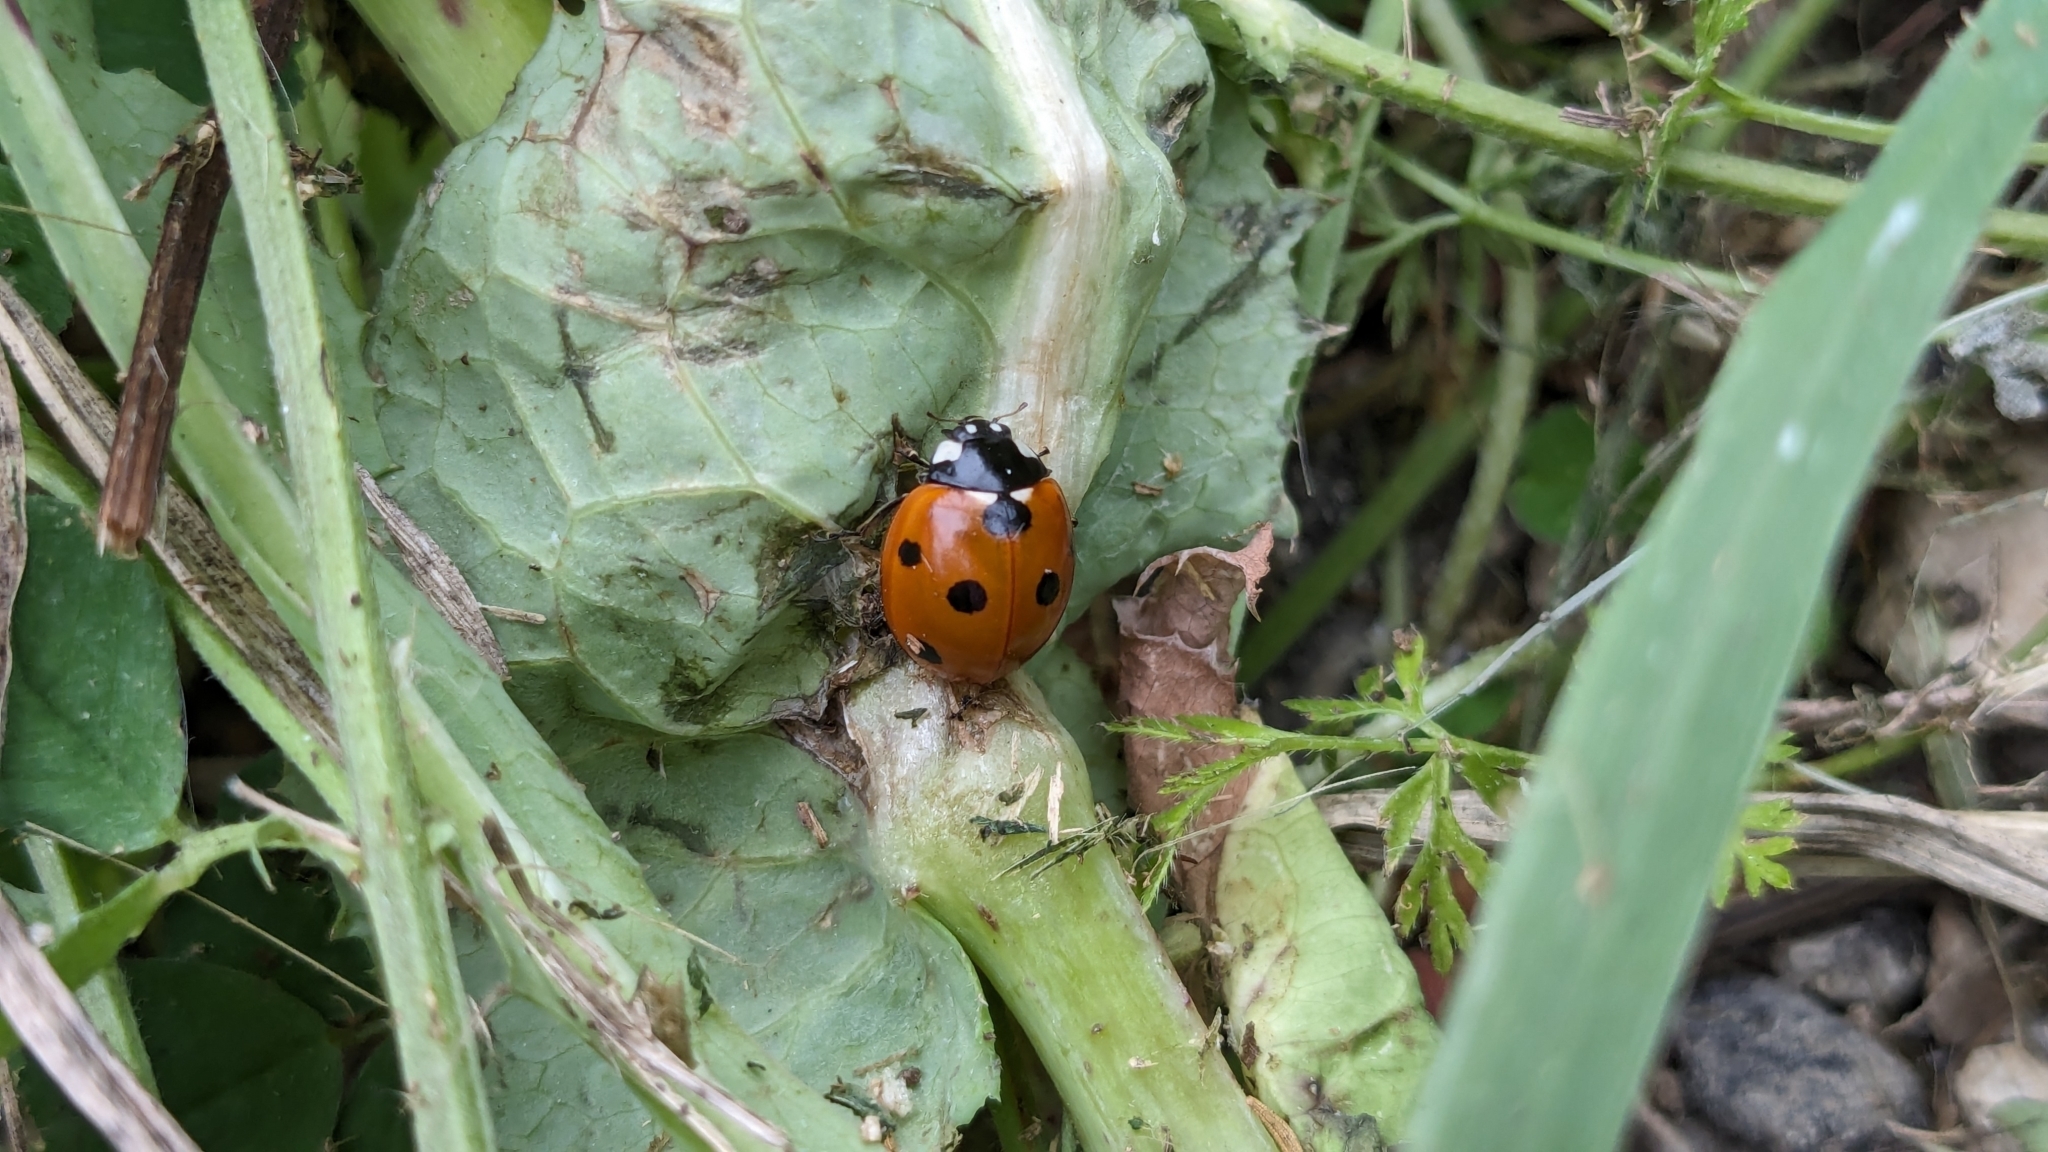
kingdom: Animalia
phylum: Arthropoda
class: Insecta
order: Coleoptera
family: Coccinellidae
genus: Coccinella
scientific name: Coccinella septempunctata
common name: Sevenspotted lady beetle
